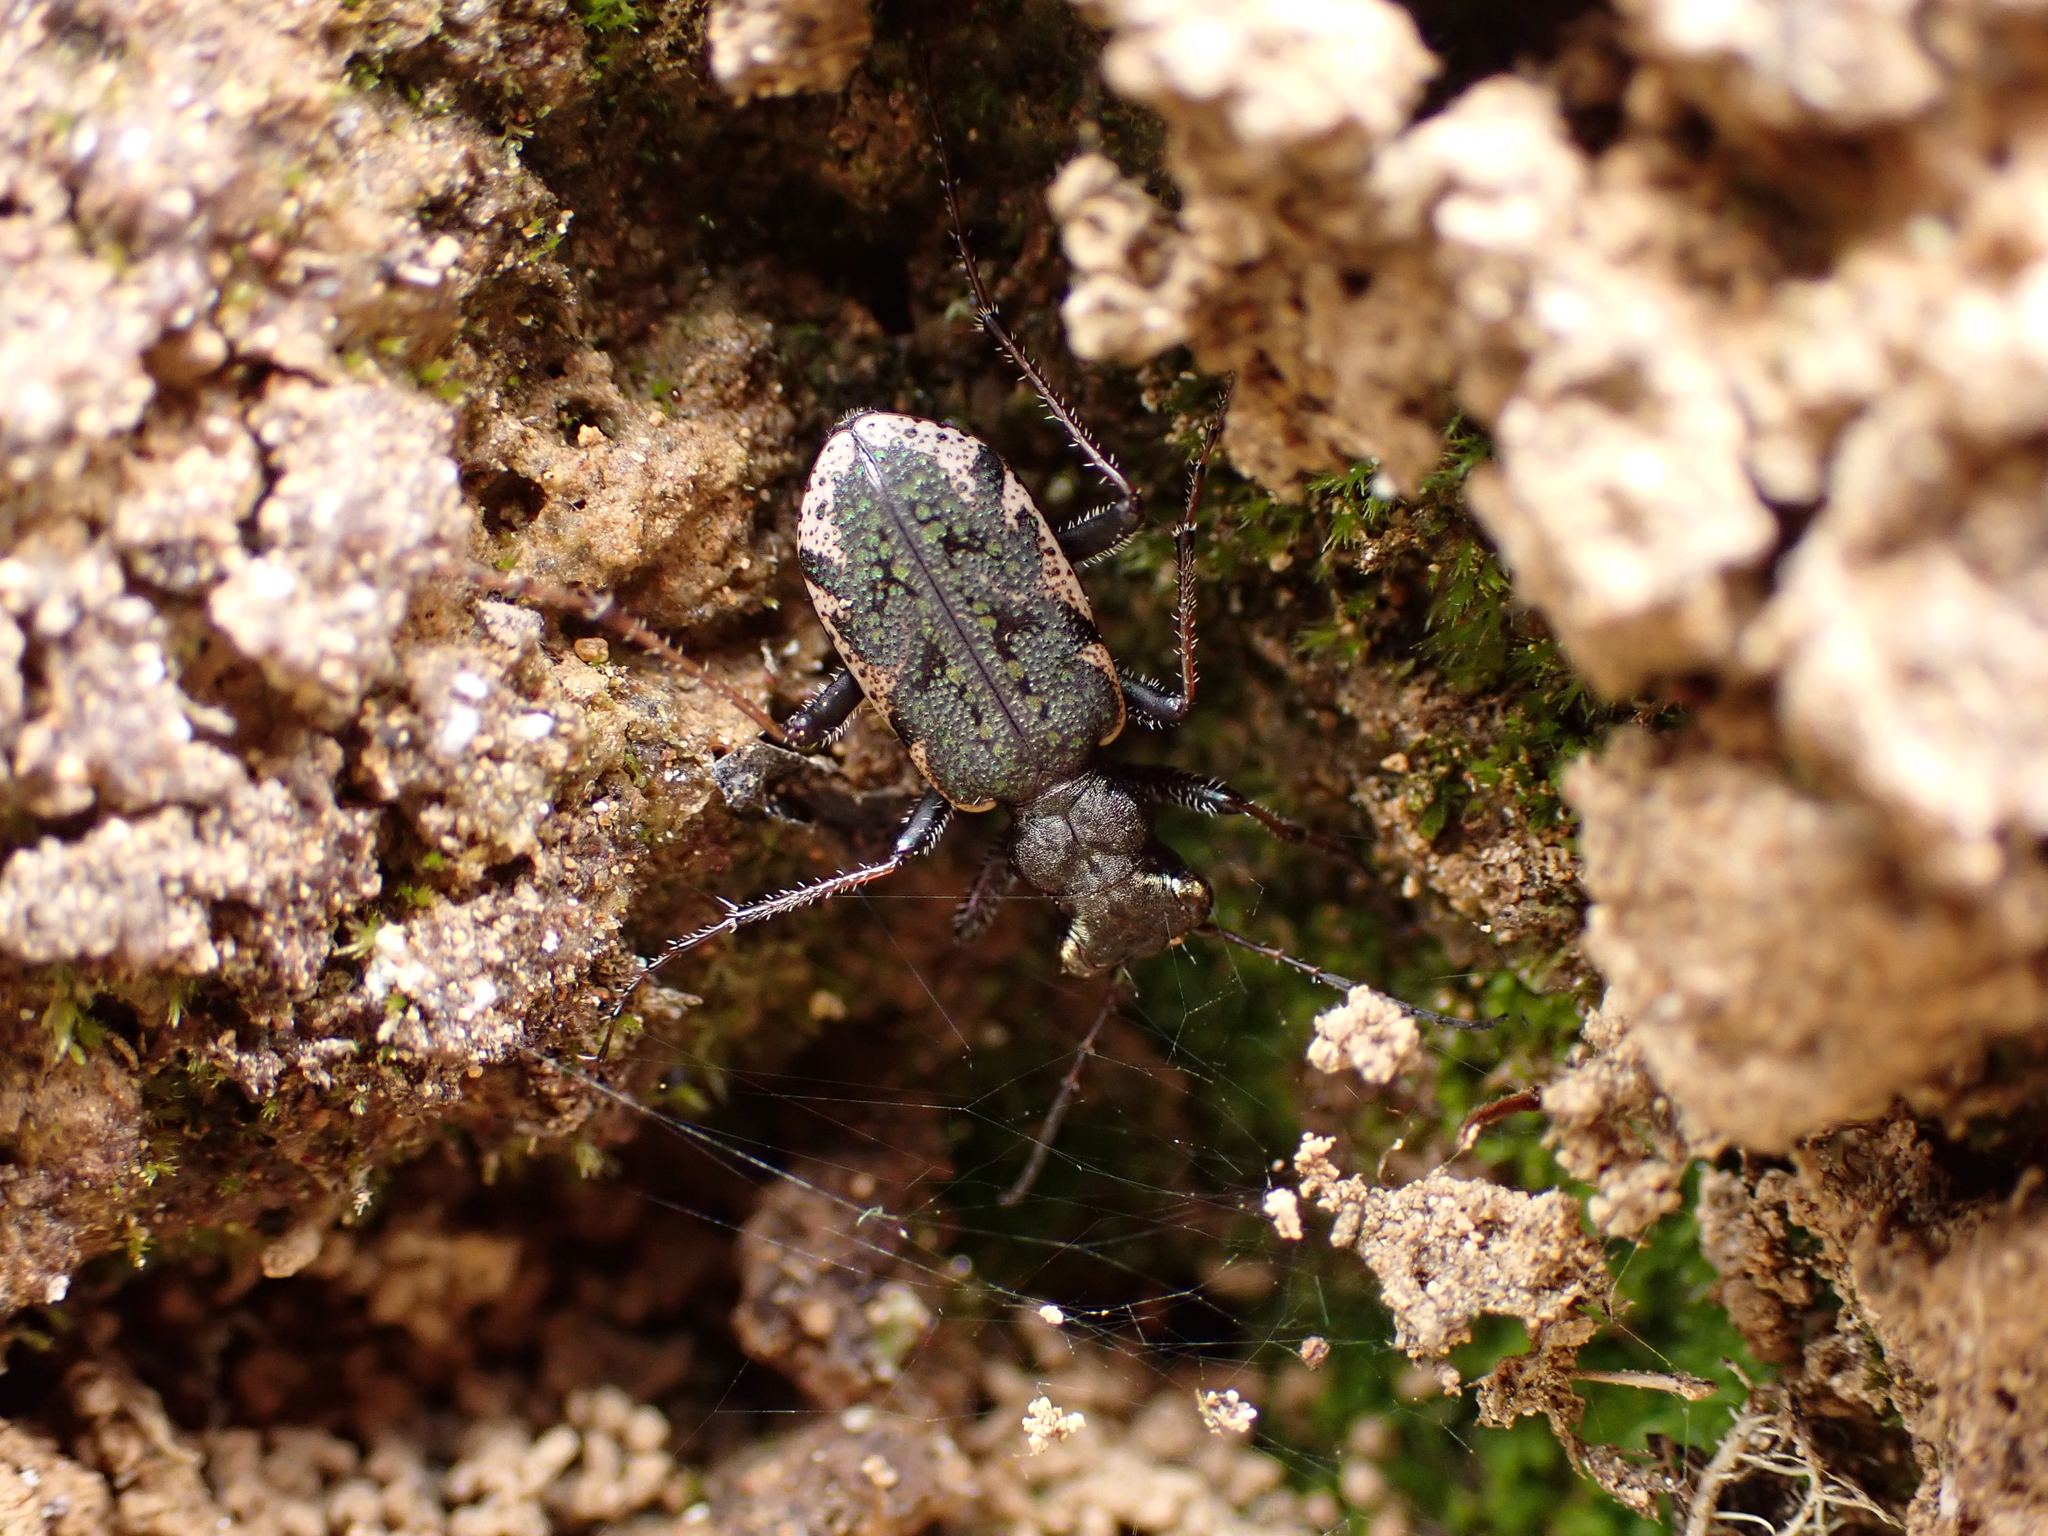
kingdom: Animalia
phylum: Arthropoda
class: Insecta
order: Coleoptera
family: Carabidae
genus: Neocicindela
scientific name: Neocicindela parryi
